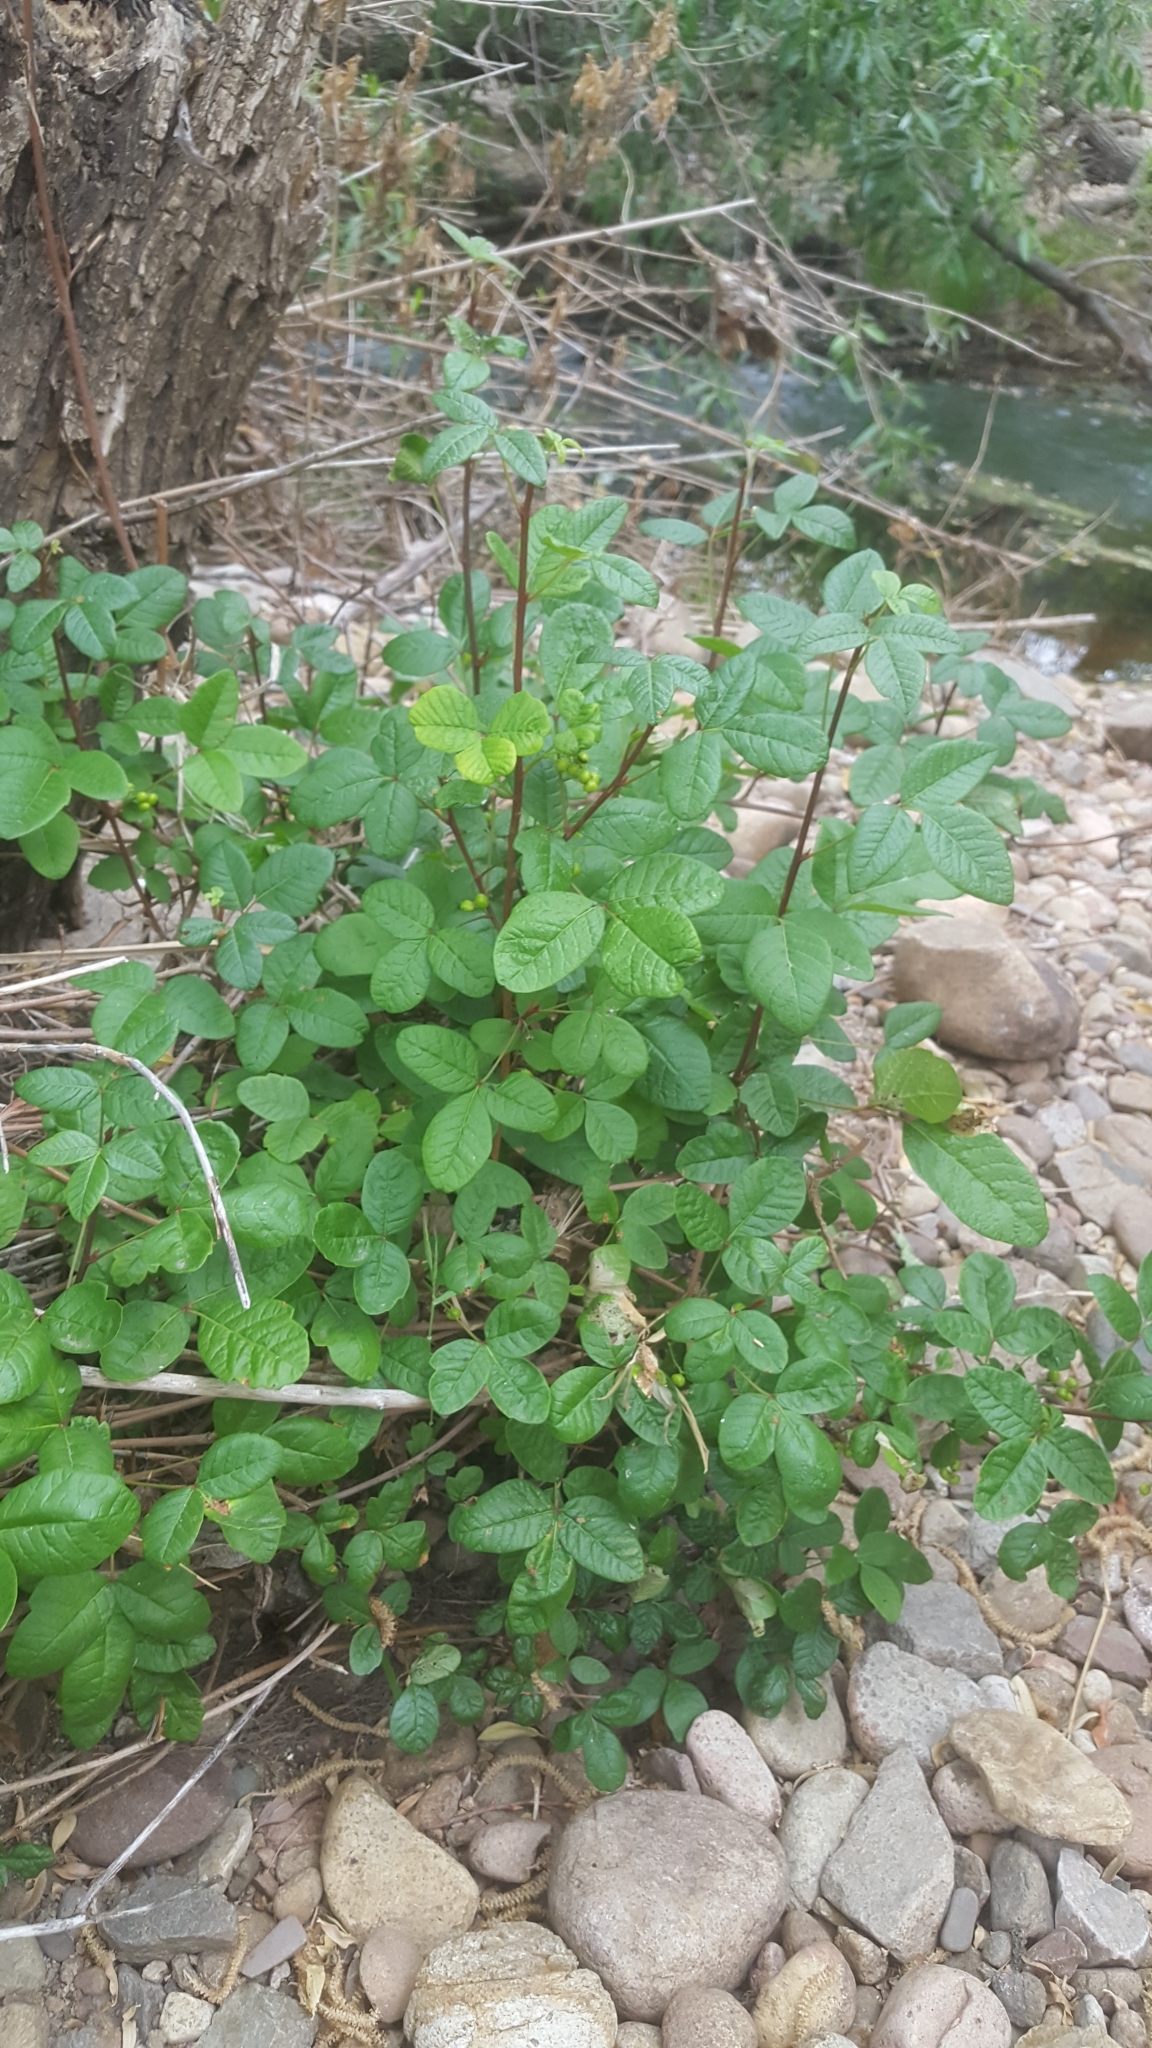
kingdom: Plantae
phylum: Tracheophyta
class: Magnoliopsida
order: Sapindales
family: Anacardiaceae
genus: Toxicodendron
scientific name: Toxicodendron diversilobum
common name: Pacific poison-oak
